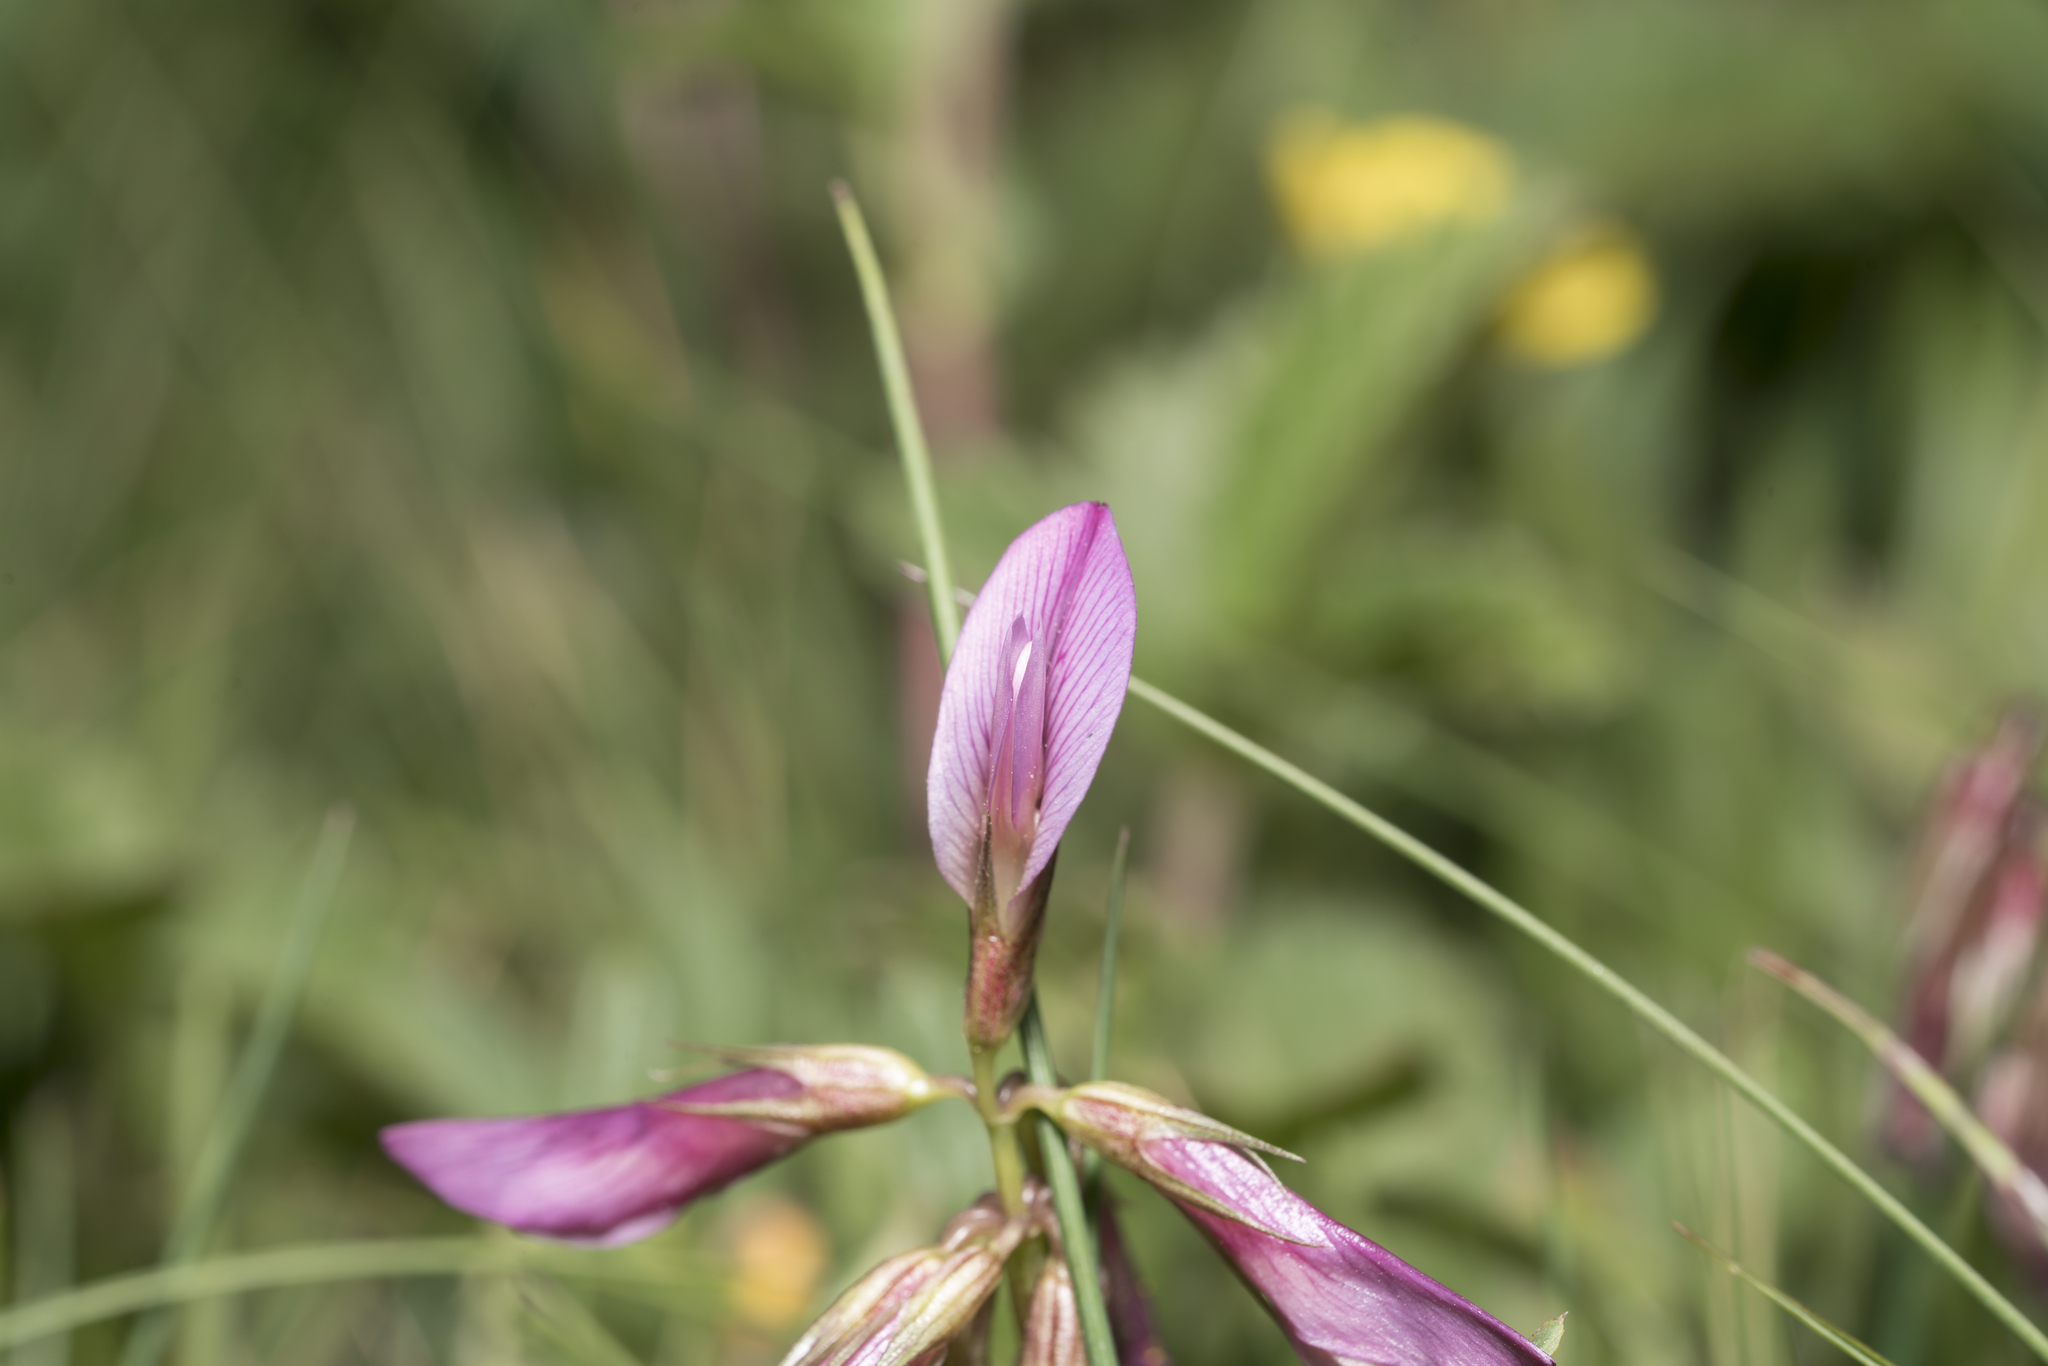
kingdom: Plantae
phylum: Tracheophyta
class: Magnoliopsida
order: Fabales
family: Fabaceae
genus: Trifolium
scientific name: Trifolium alpinum
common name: Alpine clover
